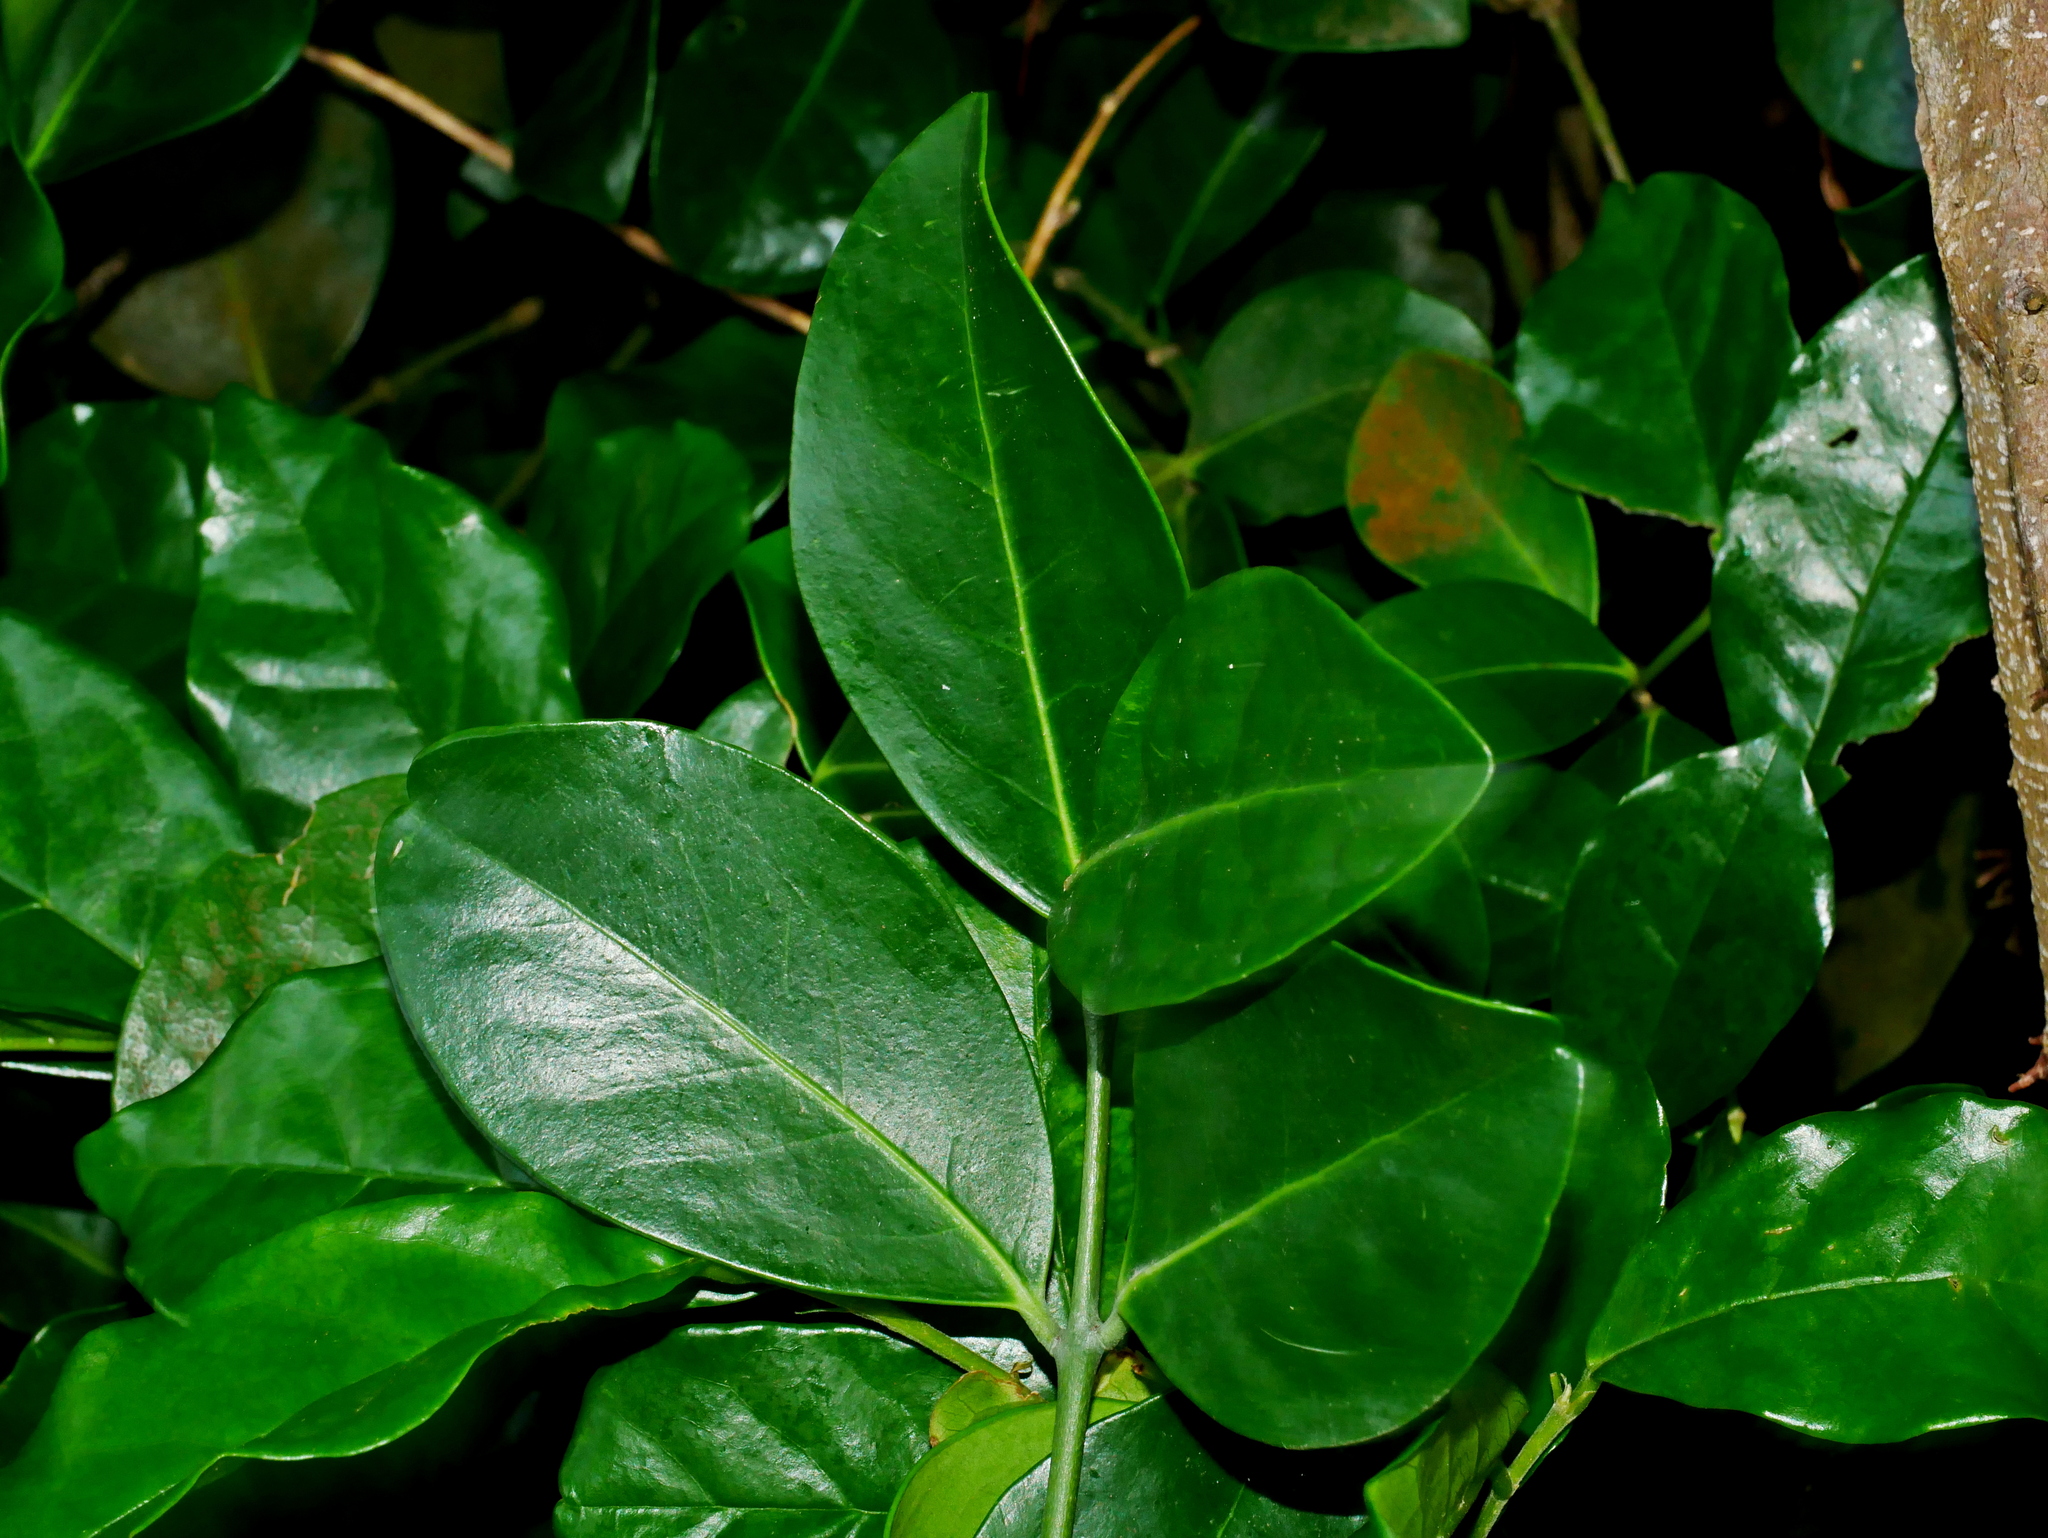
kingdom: Plantae
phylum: Tracheophyta
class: Magnoliopsida
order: Celastrales
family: Celastraceae
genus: Euonymus
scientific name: Euonymus pallidifolius
